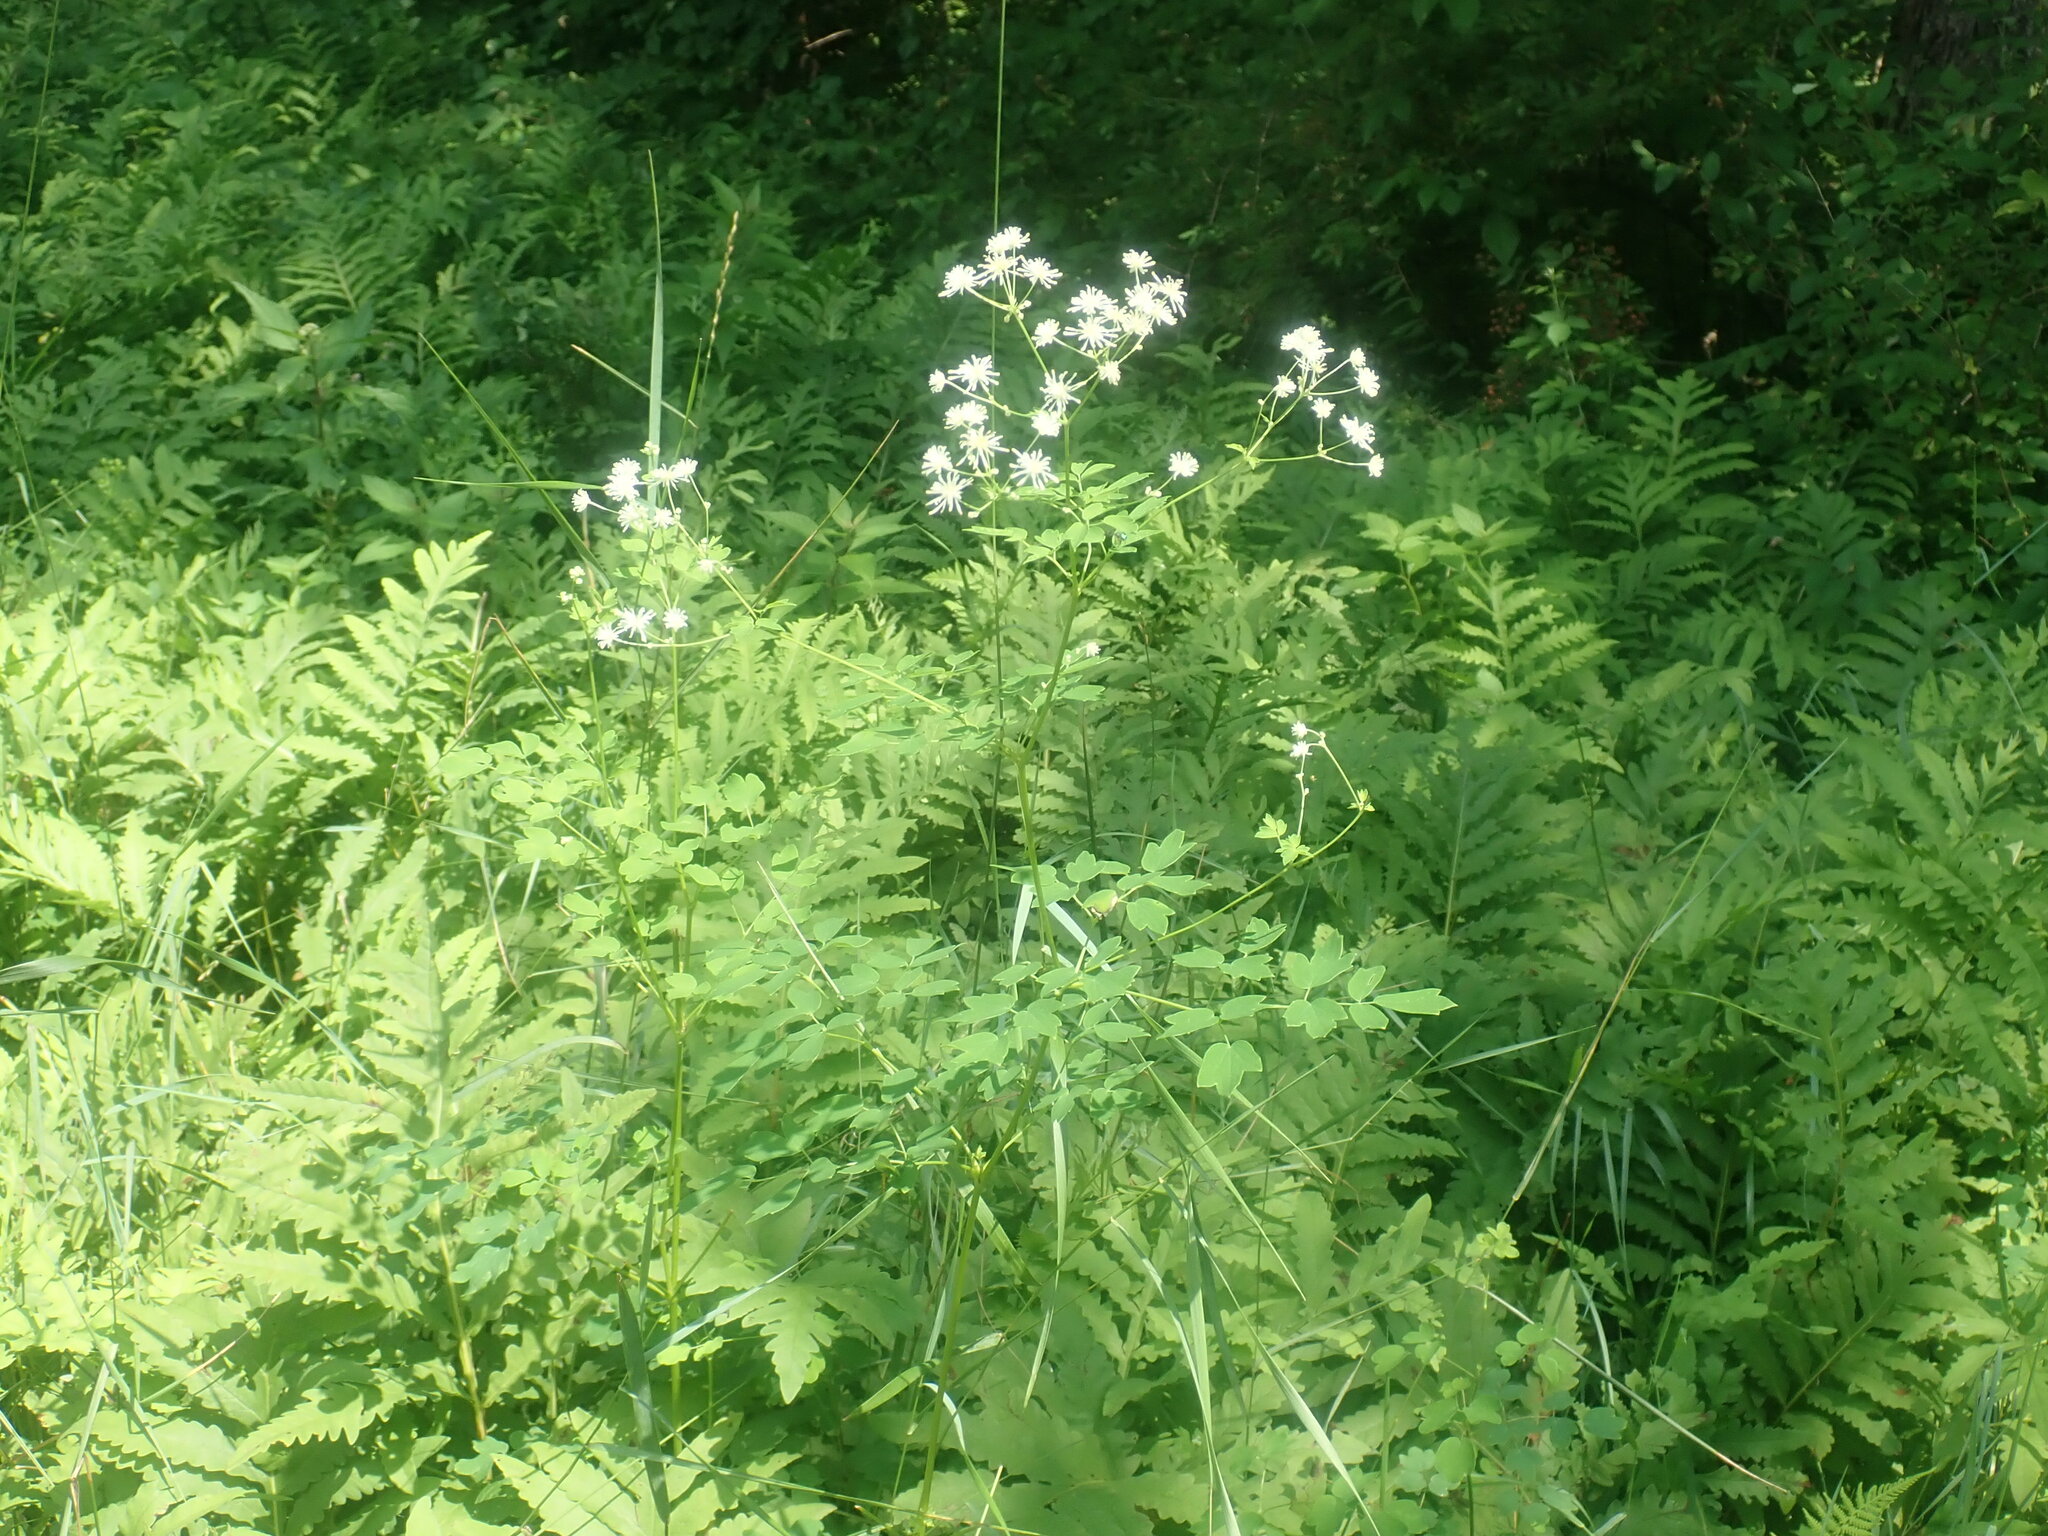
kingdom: Plantae
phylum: Tracheophyta
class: Magnoliopsida
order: Ranunculales
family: Ranunculaceae
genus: Thalictrum
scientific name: Thalictrum pubescens
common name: King-of-the-meadow
